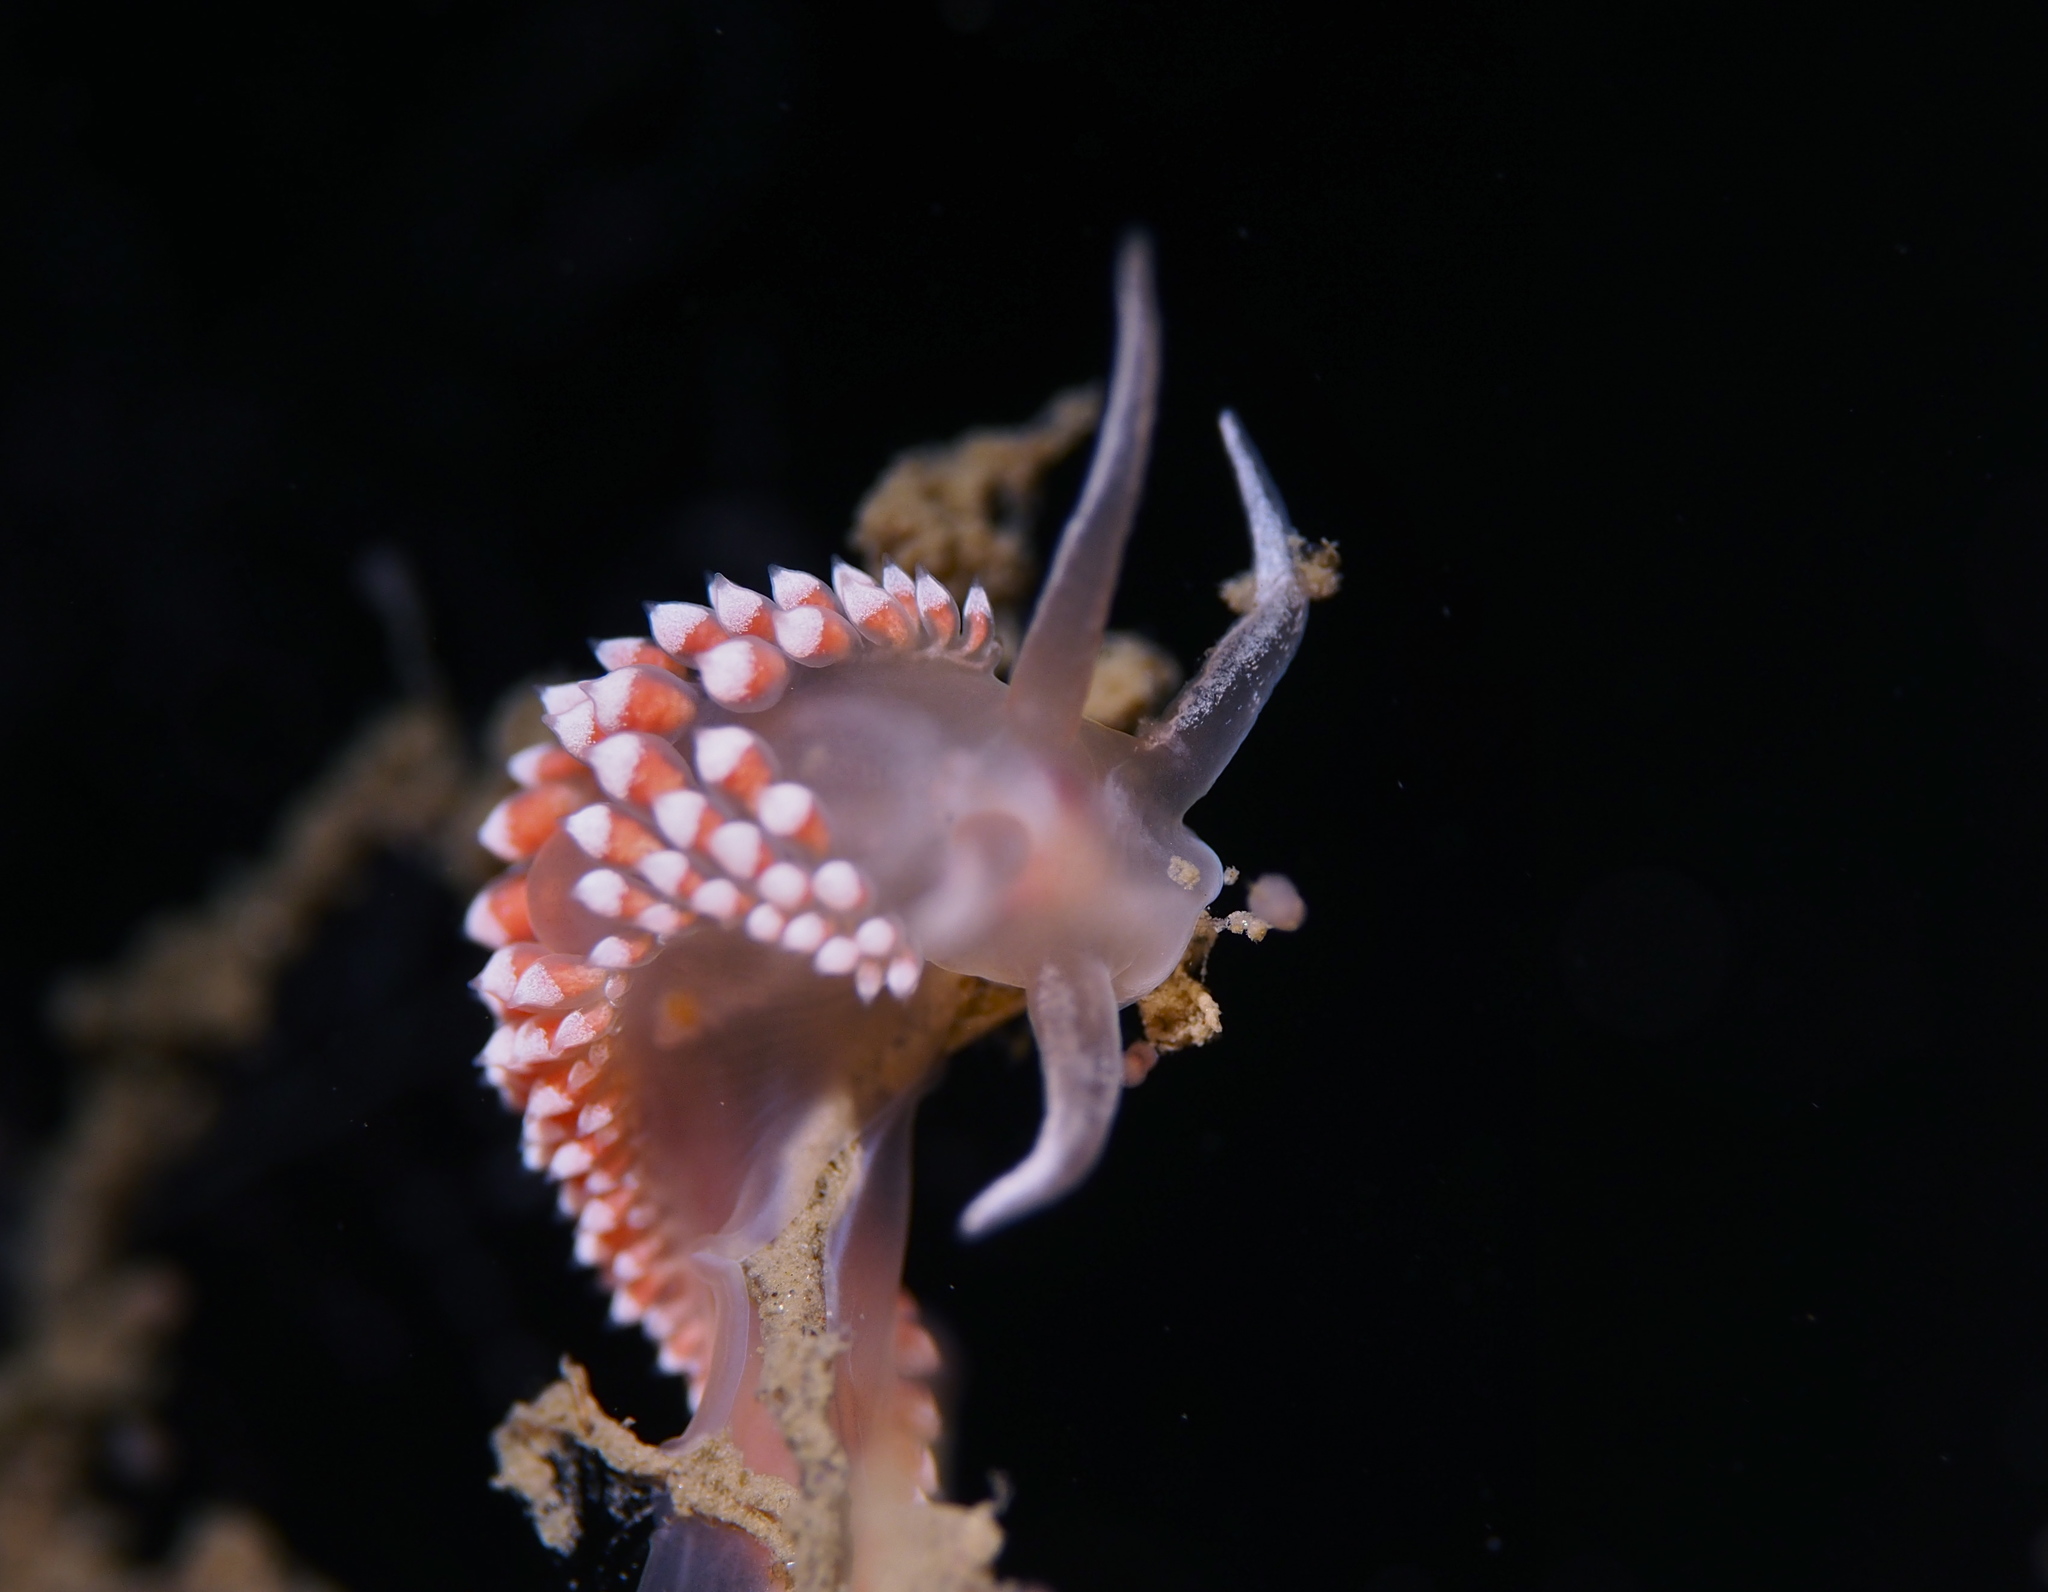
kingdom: Animalia
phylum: Mollusca
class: Gastropoda
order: Nudibranchia
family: Coryphellidae
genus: Coryphella
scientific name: Coryphella verrucosa
